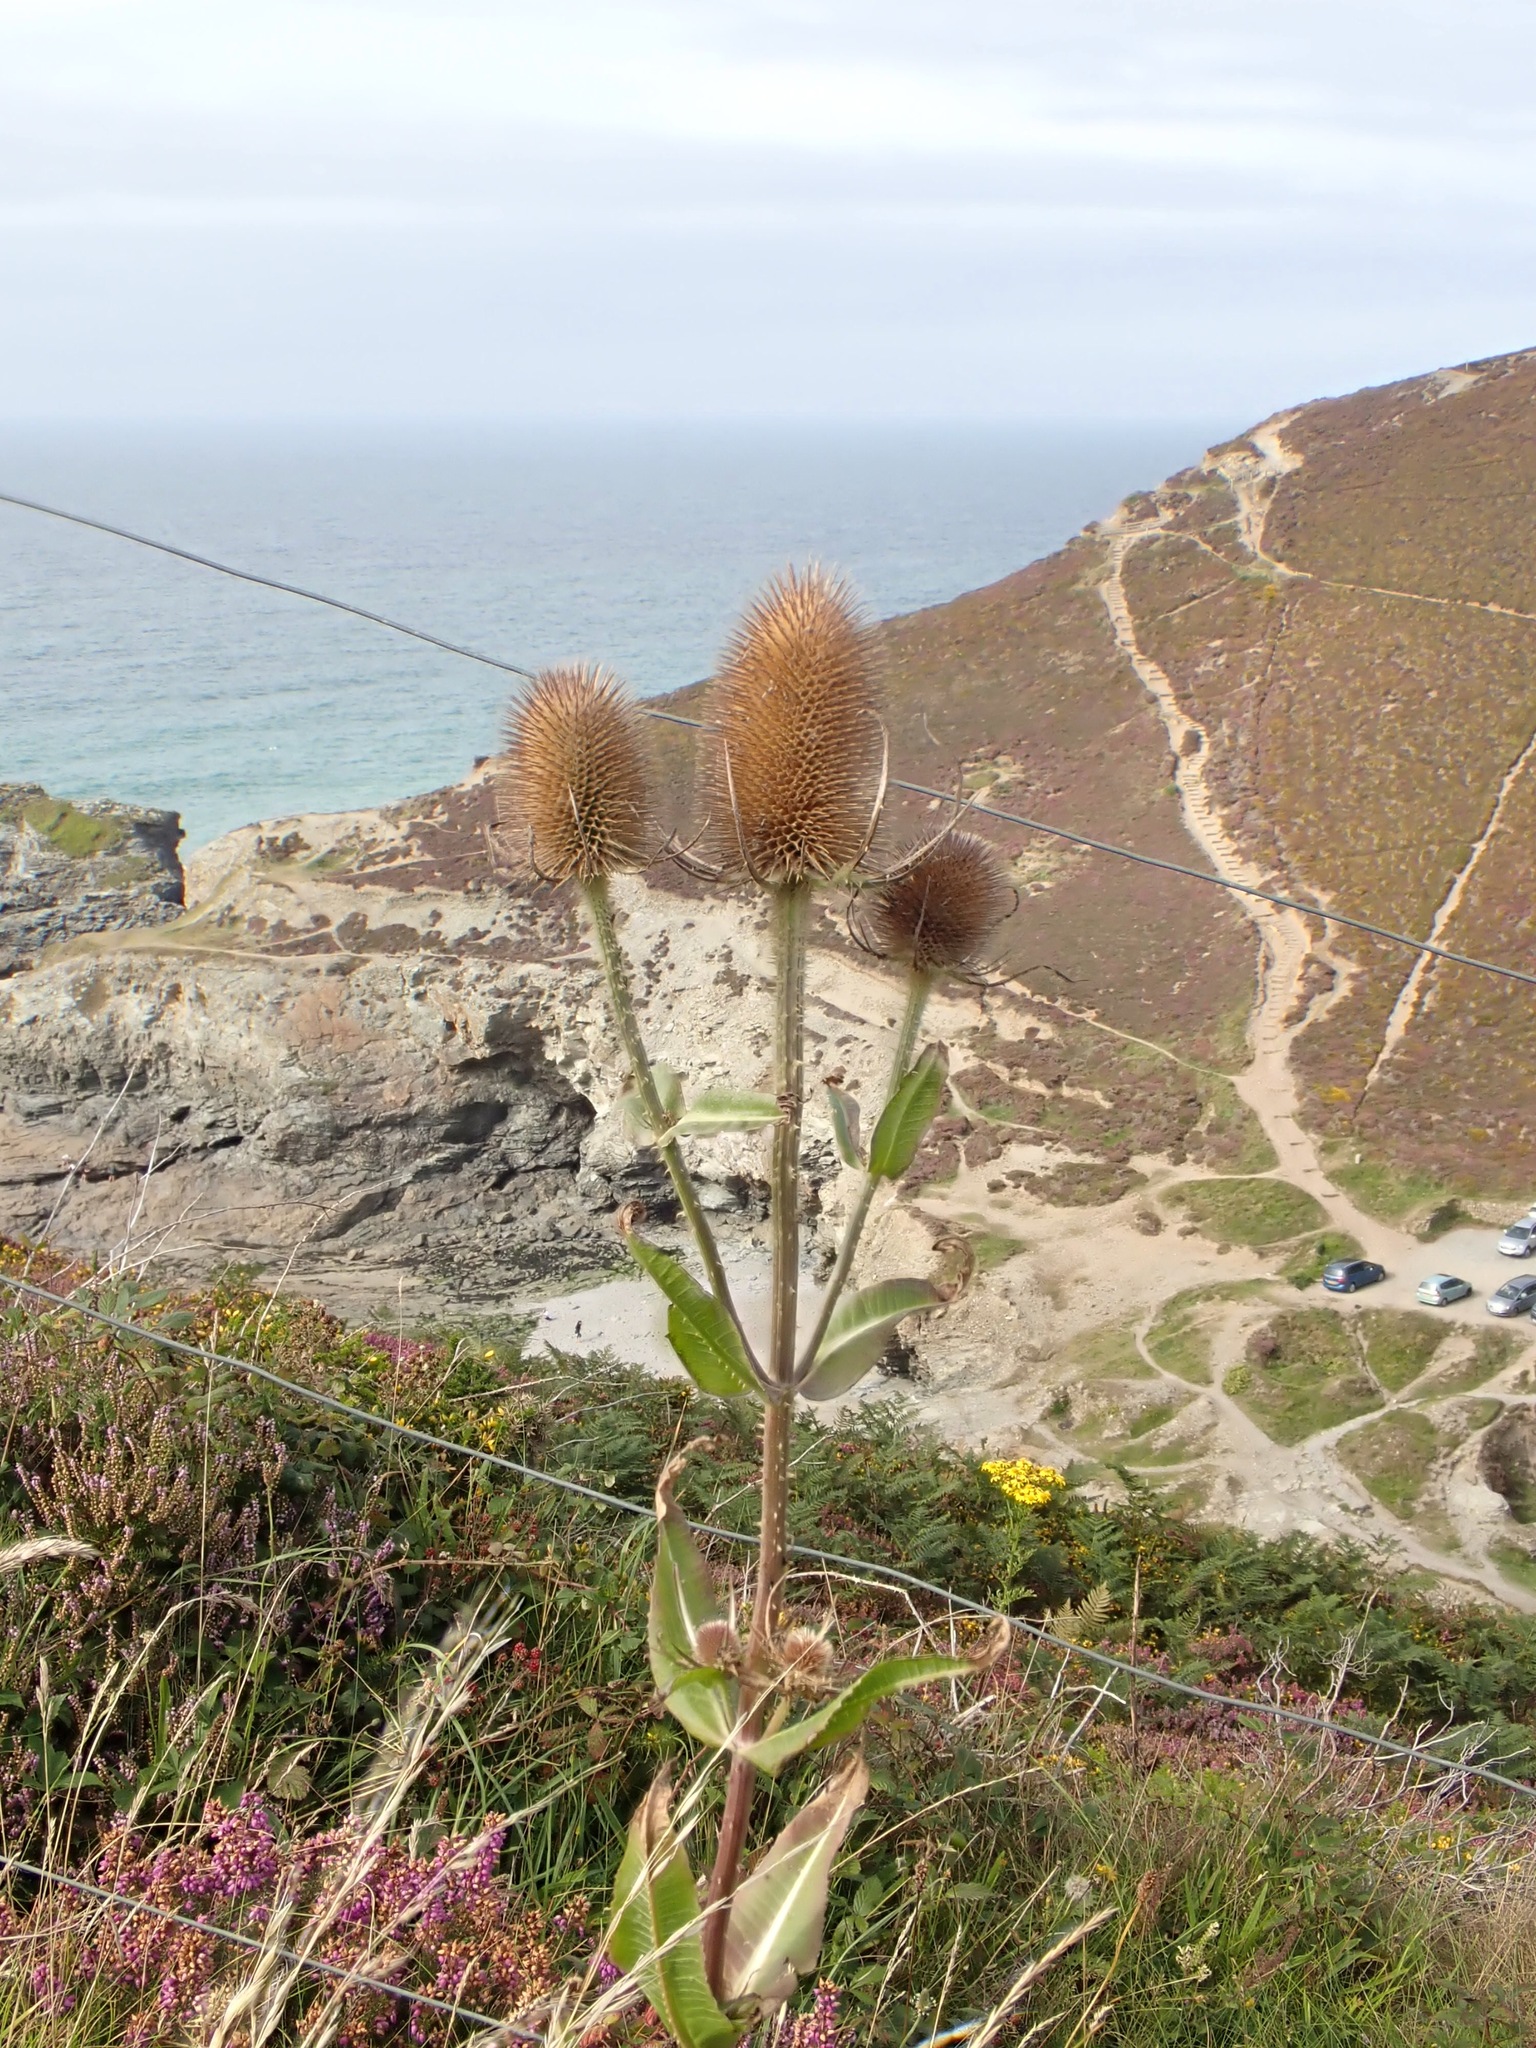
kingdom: Plantae
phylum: Tracheophyta
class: Magnoliopsida
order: Dipsacales
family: Caprifoliaceae
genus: Dipsacus
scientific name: Dipsacus fullonum
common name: Teasel
